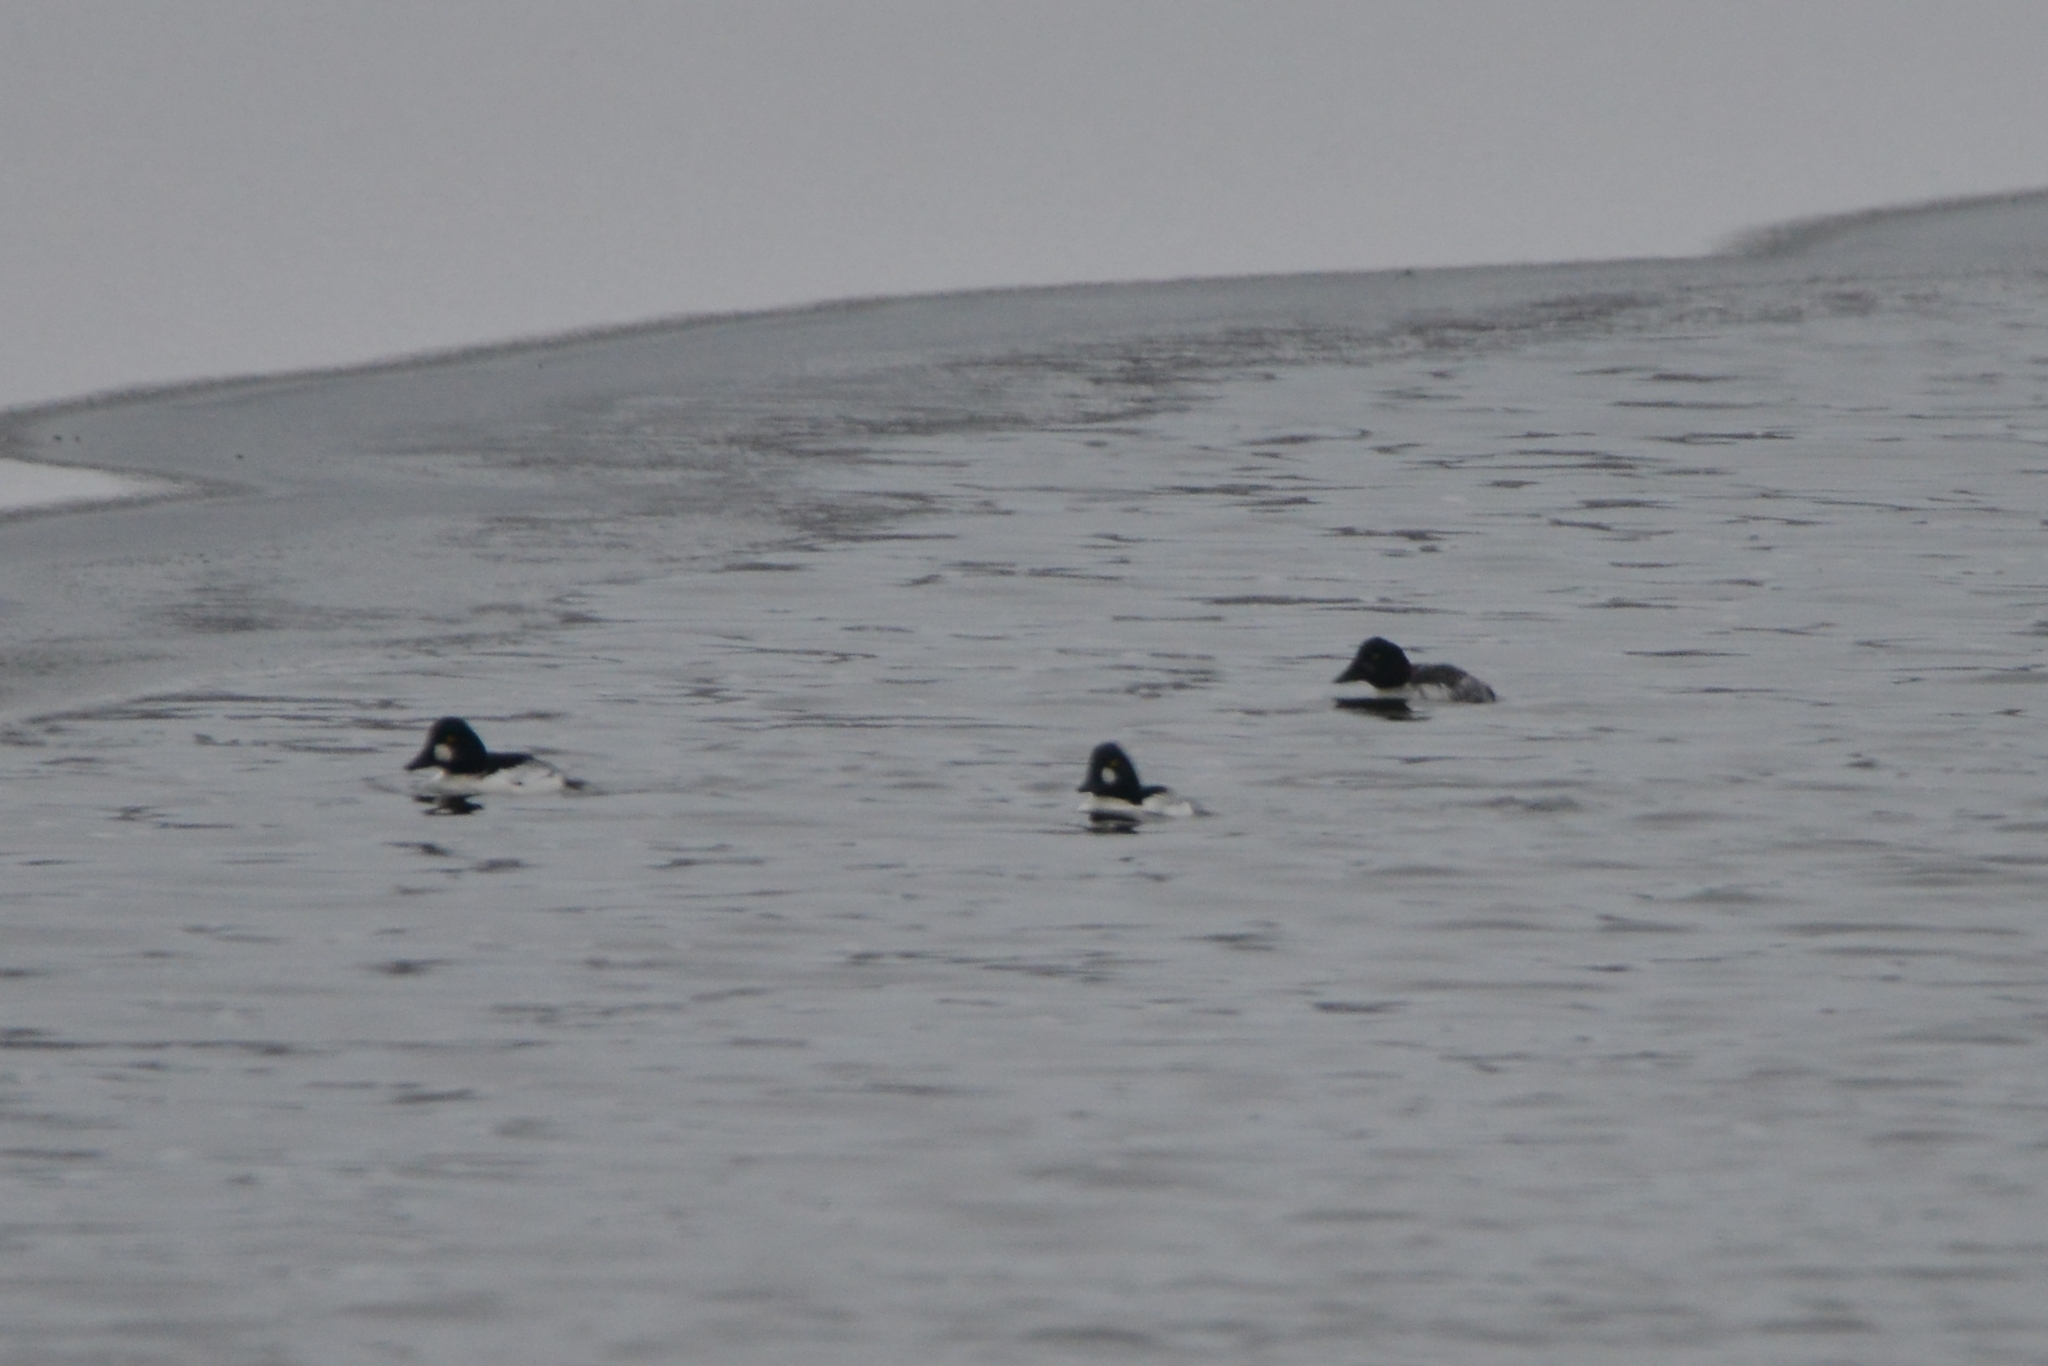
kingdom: Animalia
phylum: Chordata
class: Aves
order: Anseriformes
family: Anatidae
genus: Bucephala
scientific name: Bucephala clangula
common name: Common goldeneye
